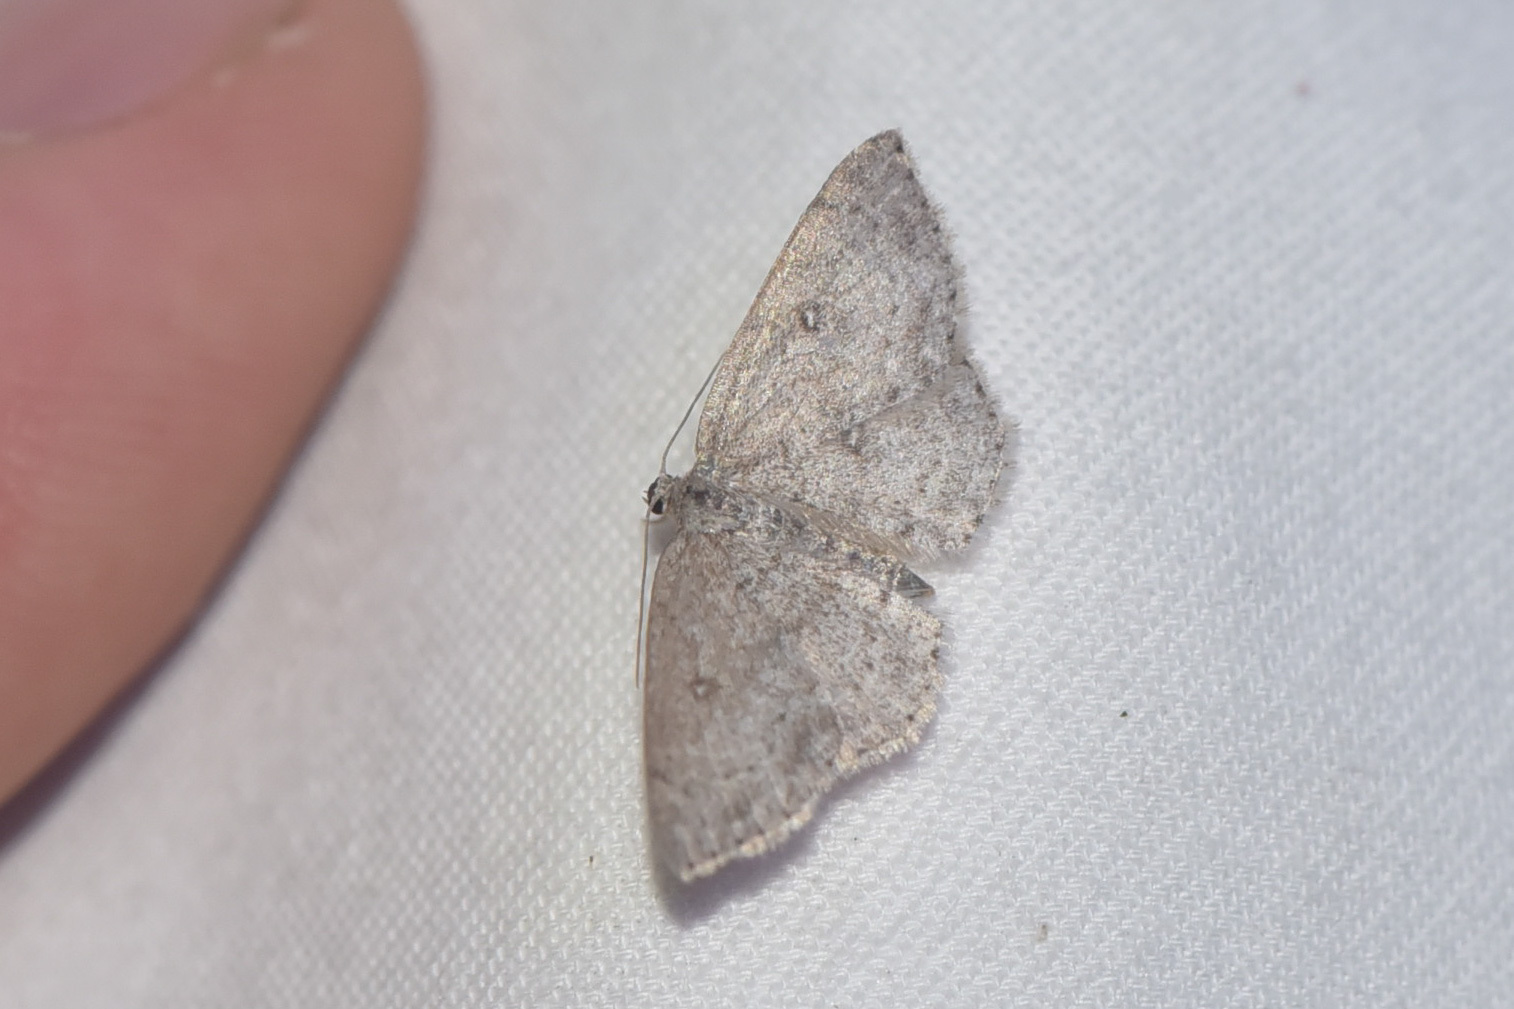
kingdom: Animalia
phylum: Arthropoda
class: Insecta
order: Lepidoptera
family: Geometridae
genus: Cyclophora
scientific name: Cyclophora pendulinaria
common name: Sweet fern geometer
